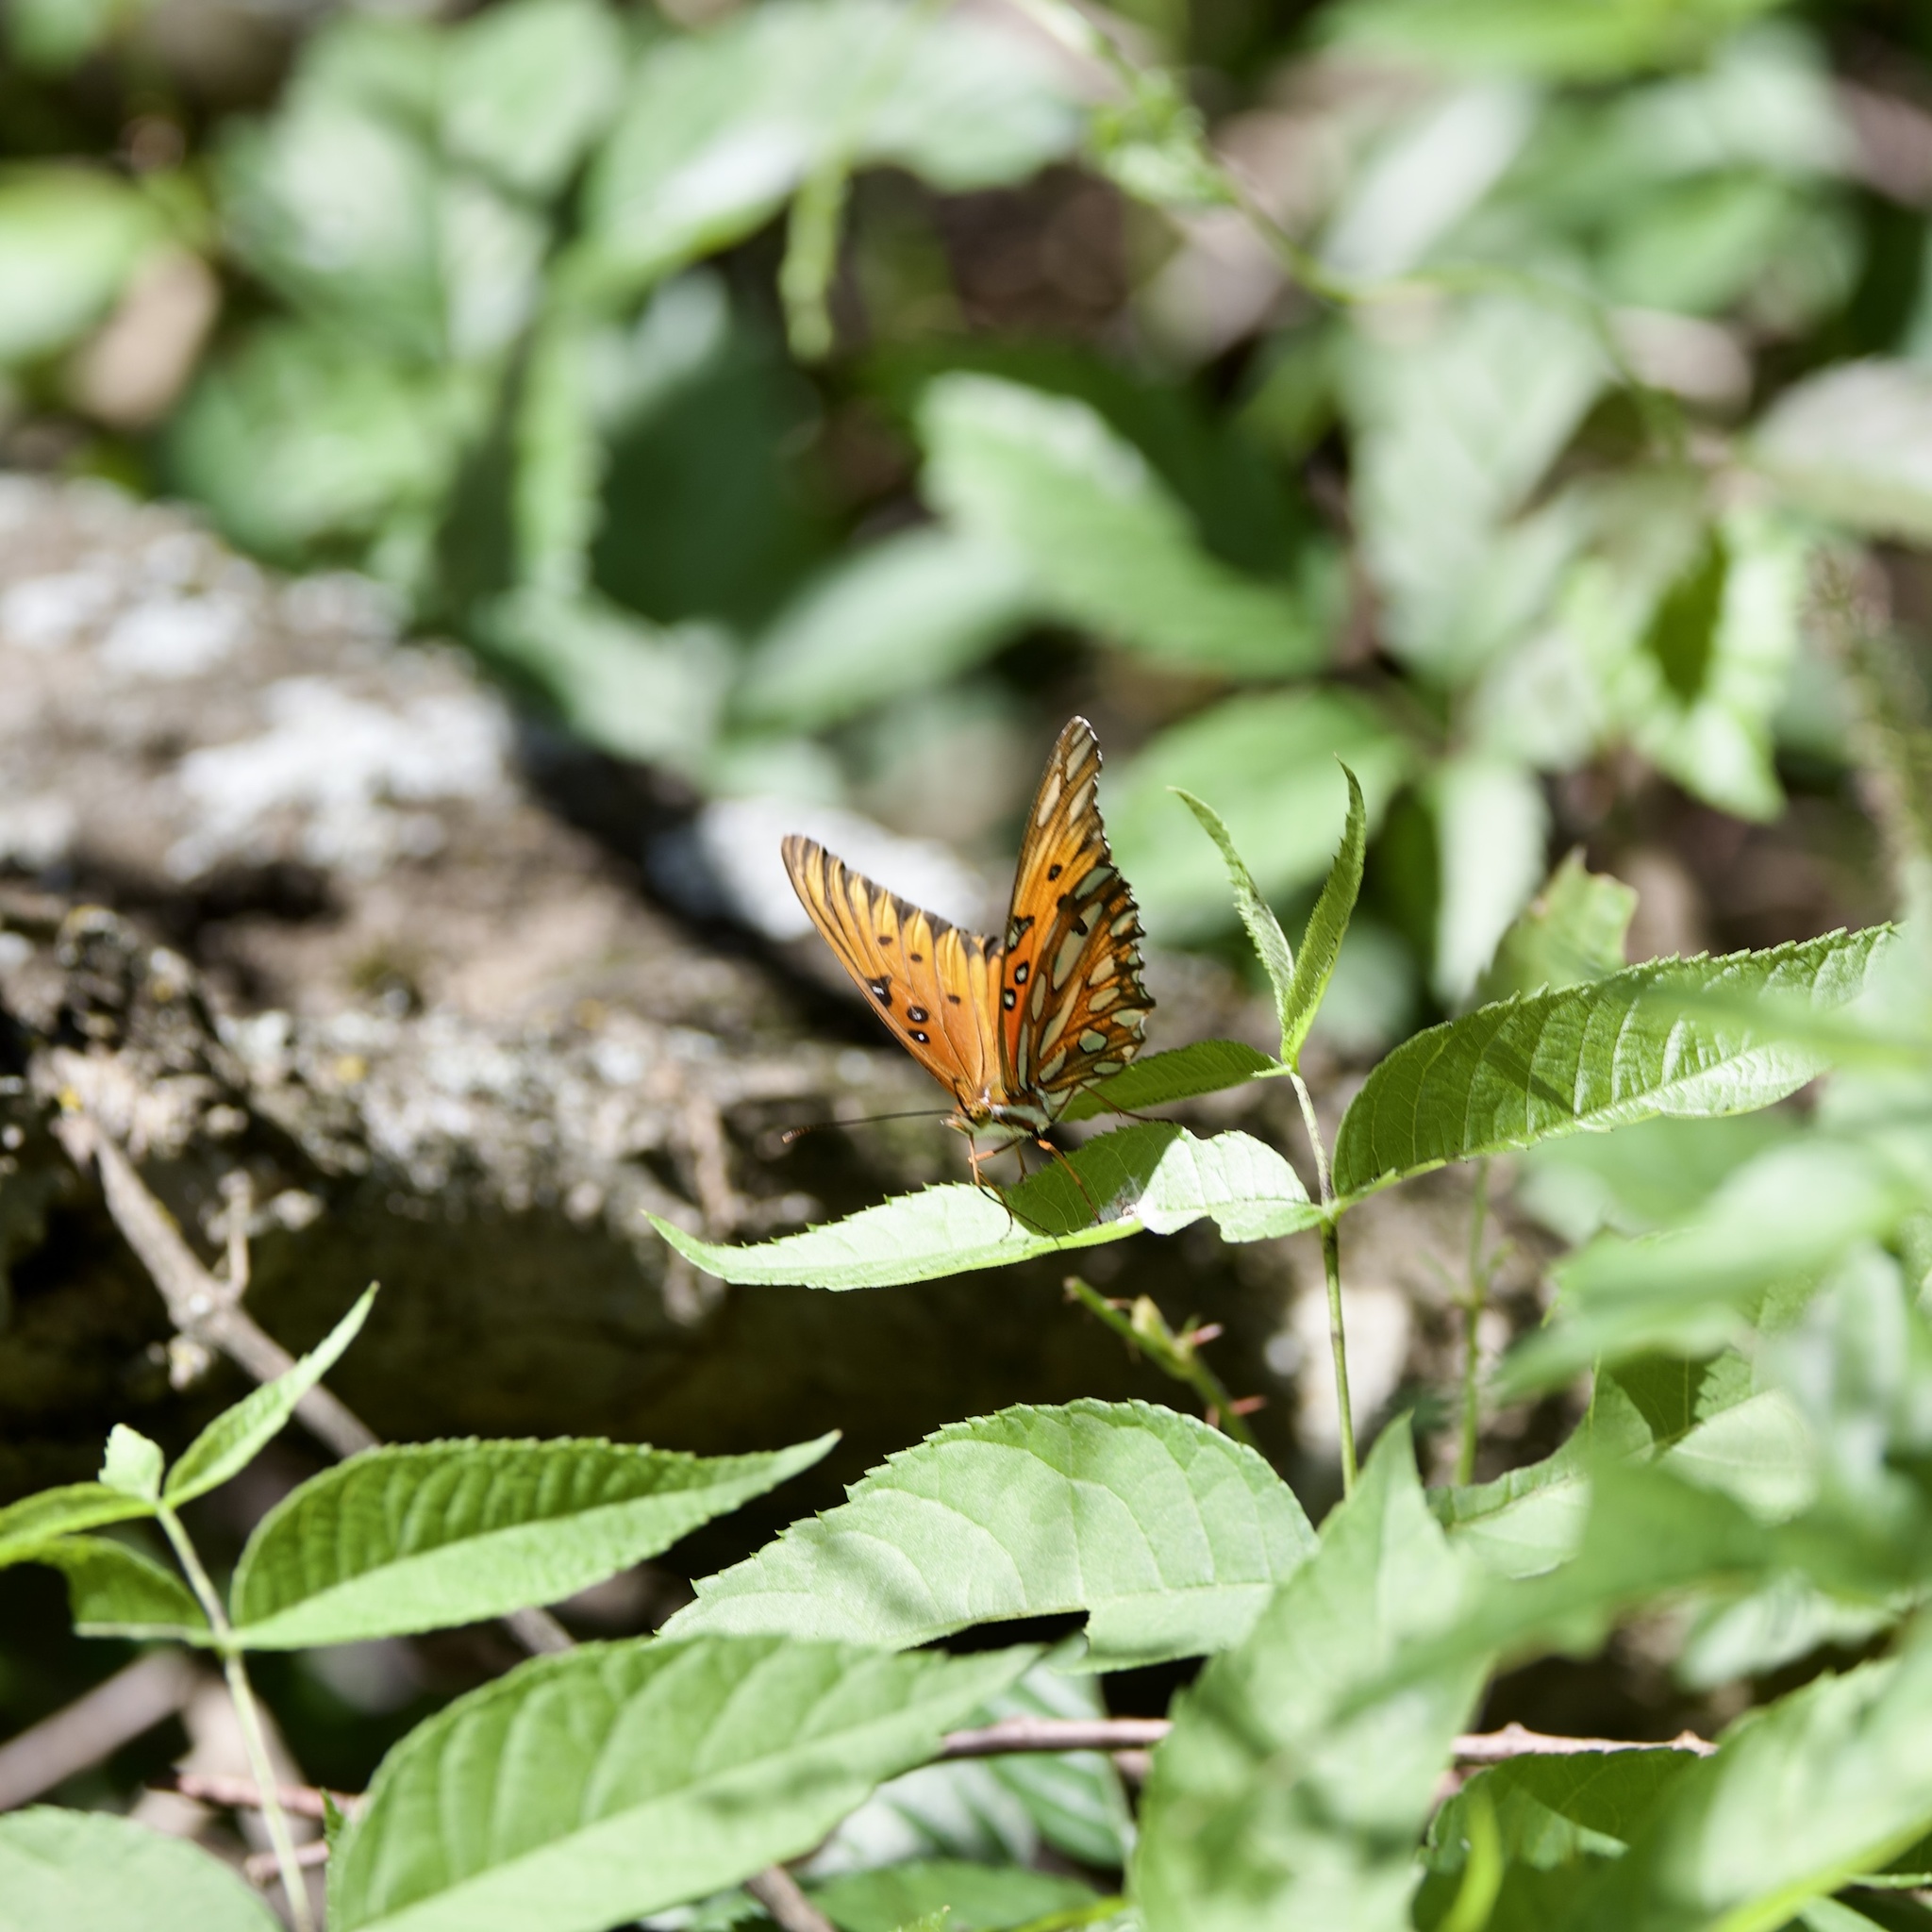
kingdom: Animalia
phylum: Arthropoda
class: Insecta
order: Lepidoptera
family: Nymphalidae
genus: Dione
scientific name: Dione vanillae
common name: Gulf fritillary
